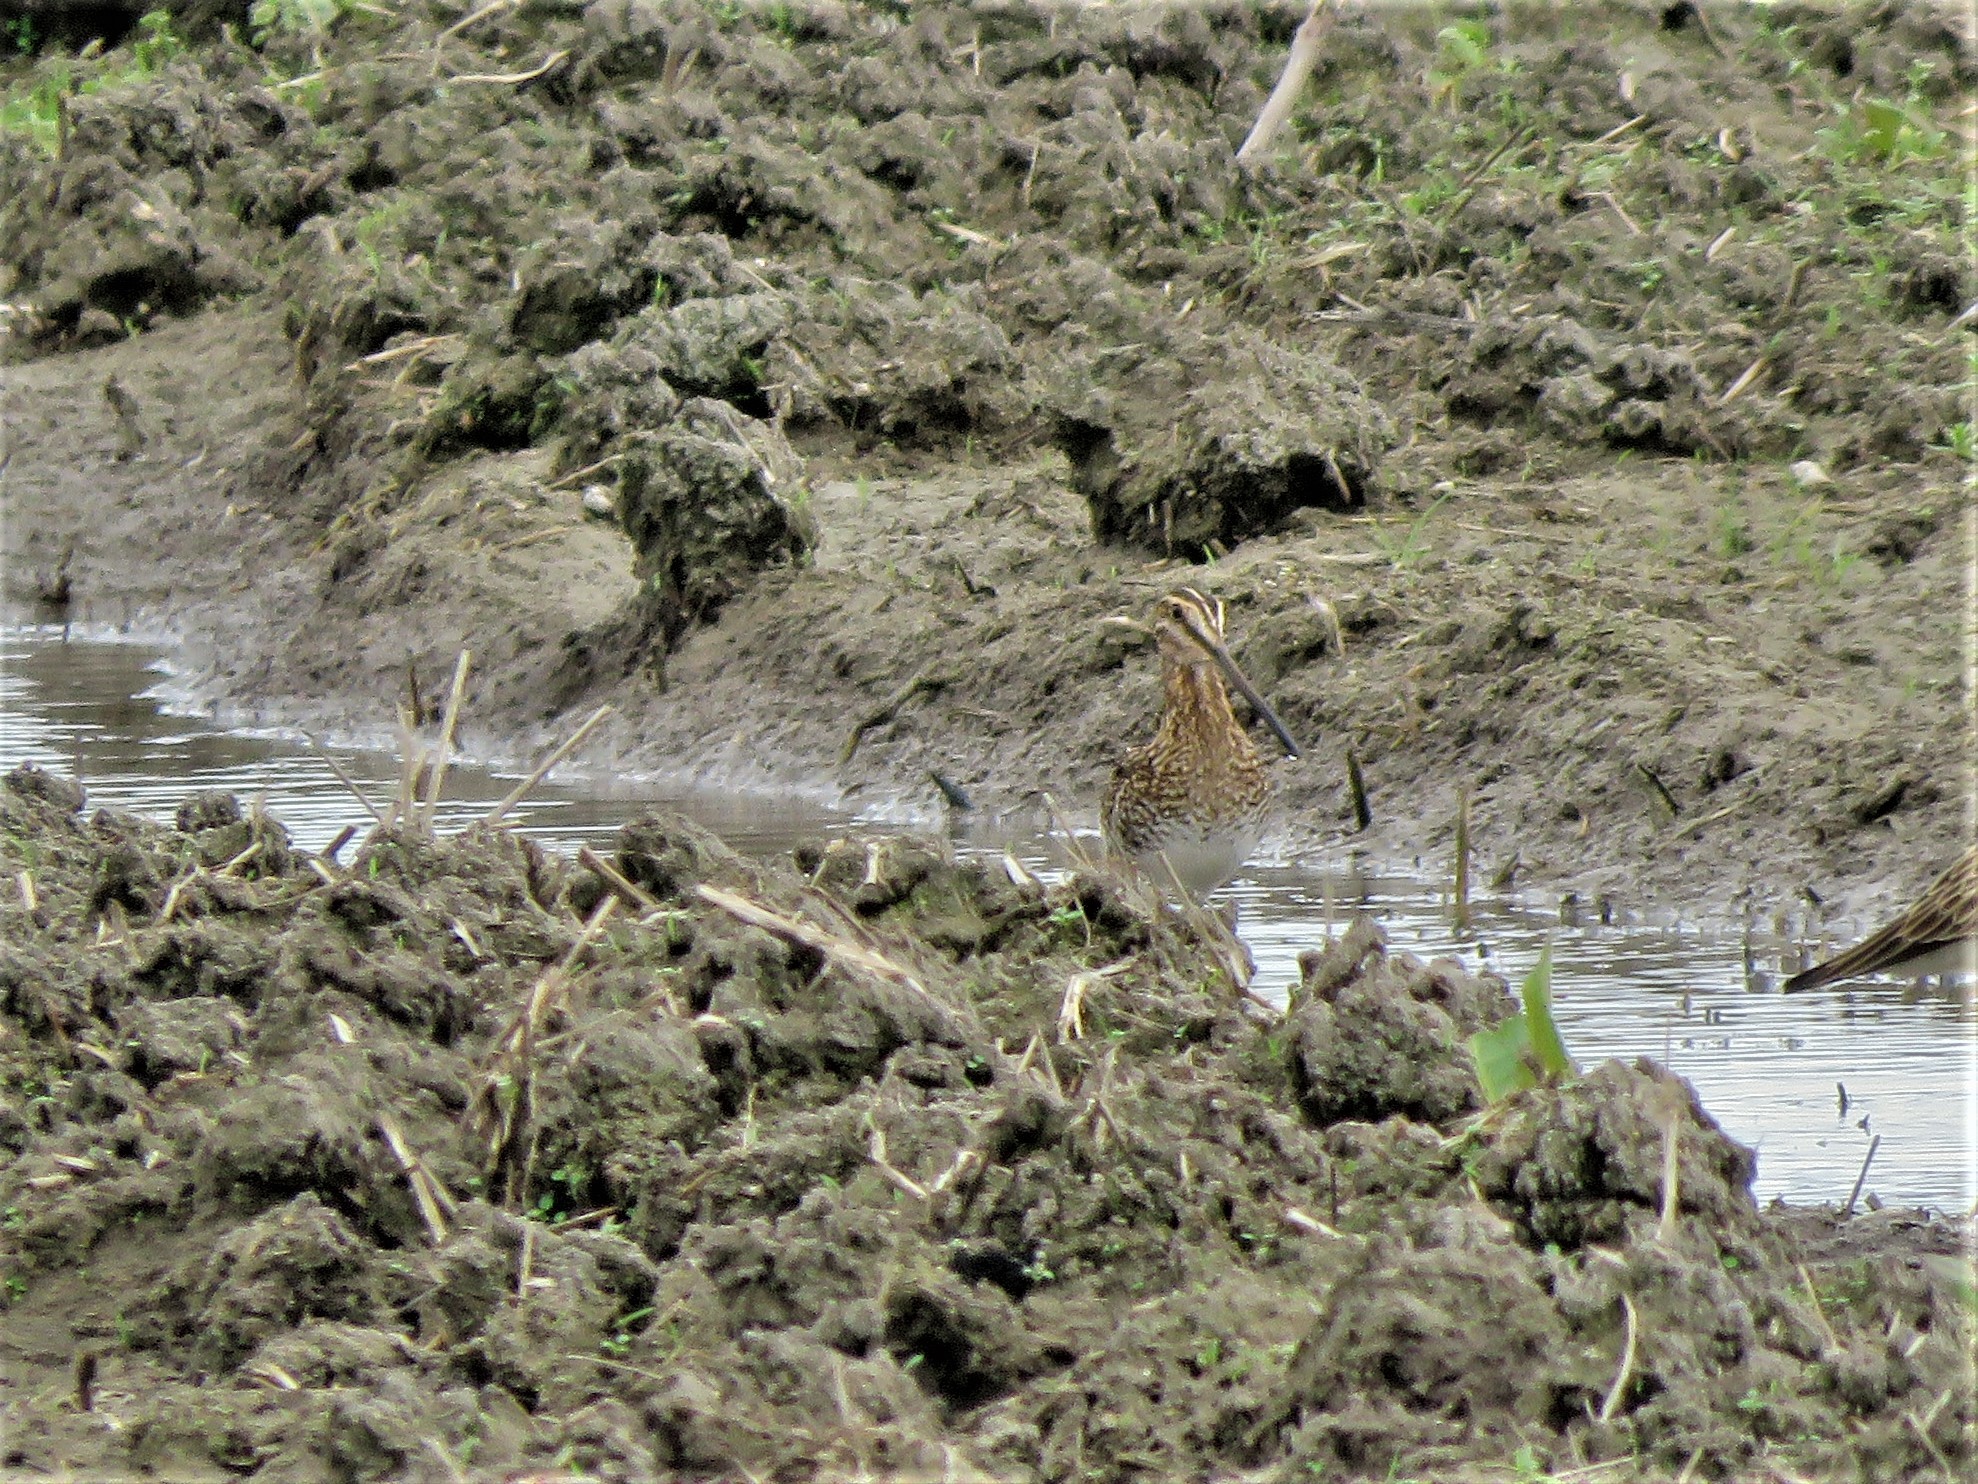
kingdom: Animalia
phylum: Chordata
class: Aves
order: Charadriiformes
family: Scolopacidae
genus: Gallinago
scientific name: Gallinago delicata
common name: Wilson's snipe
